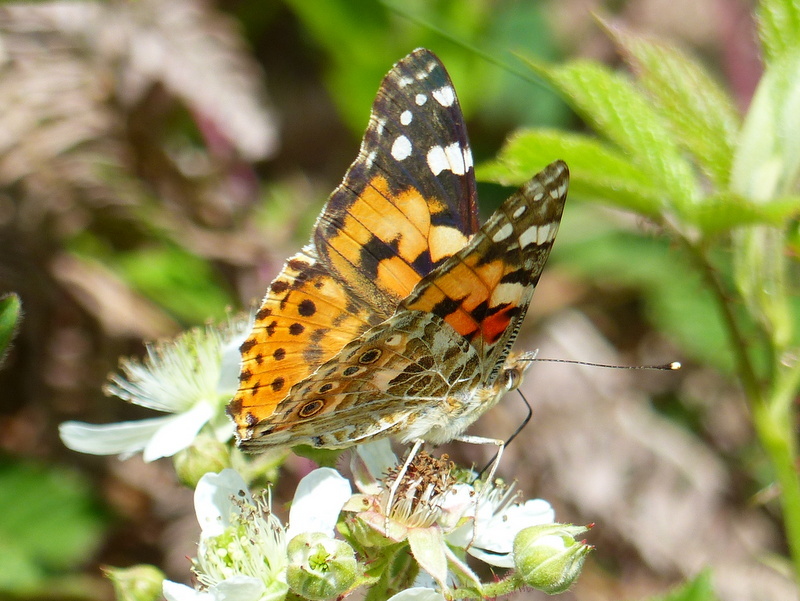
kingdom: Animalia
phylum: Arthropoda
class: Insecta
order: Lepidoptera
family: Nymphalidae
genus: Vanessa
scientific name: Vanessa cardui
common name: Painted lady
